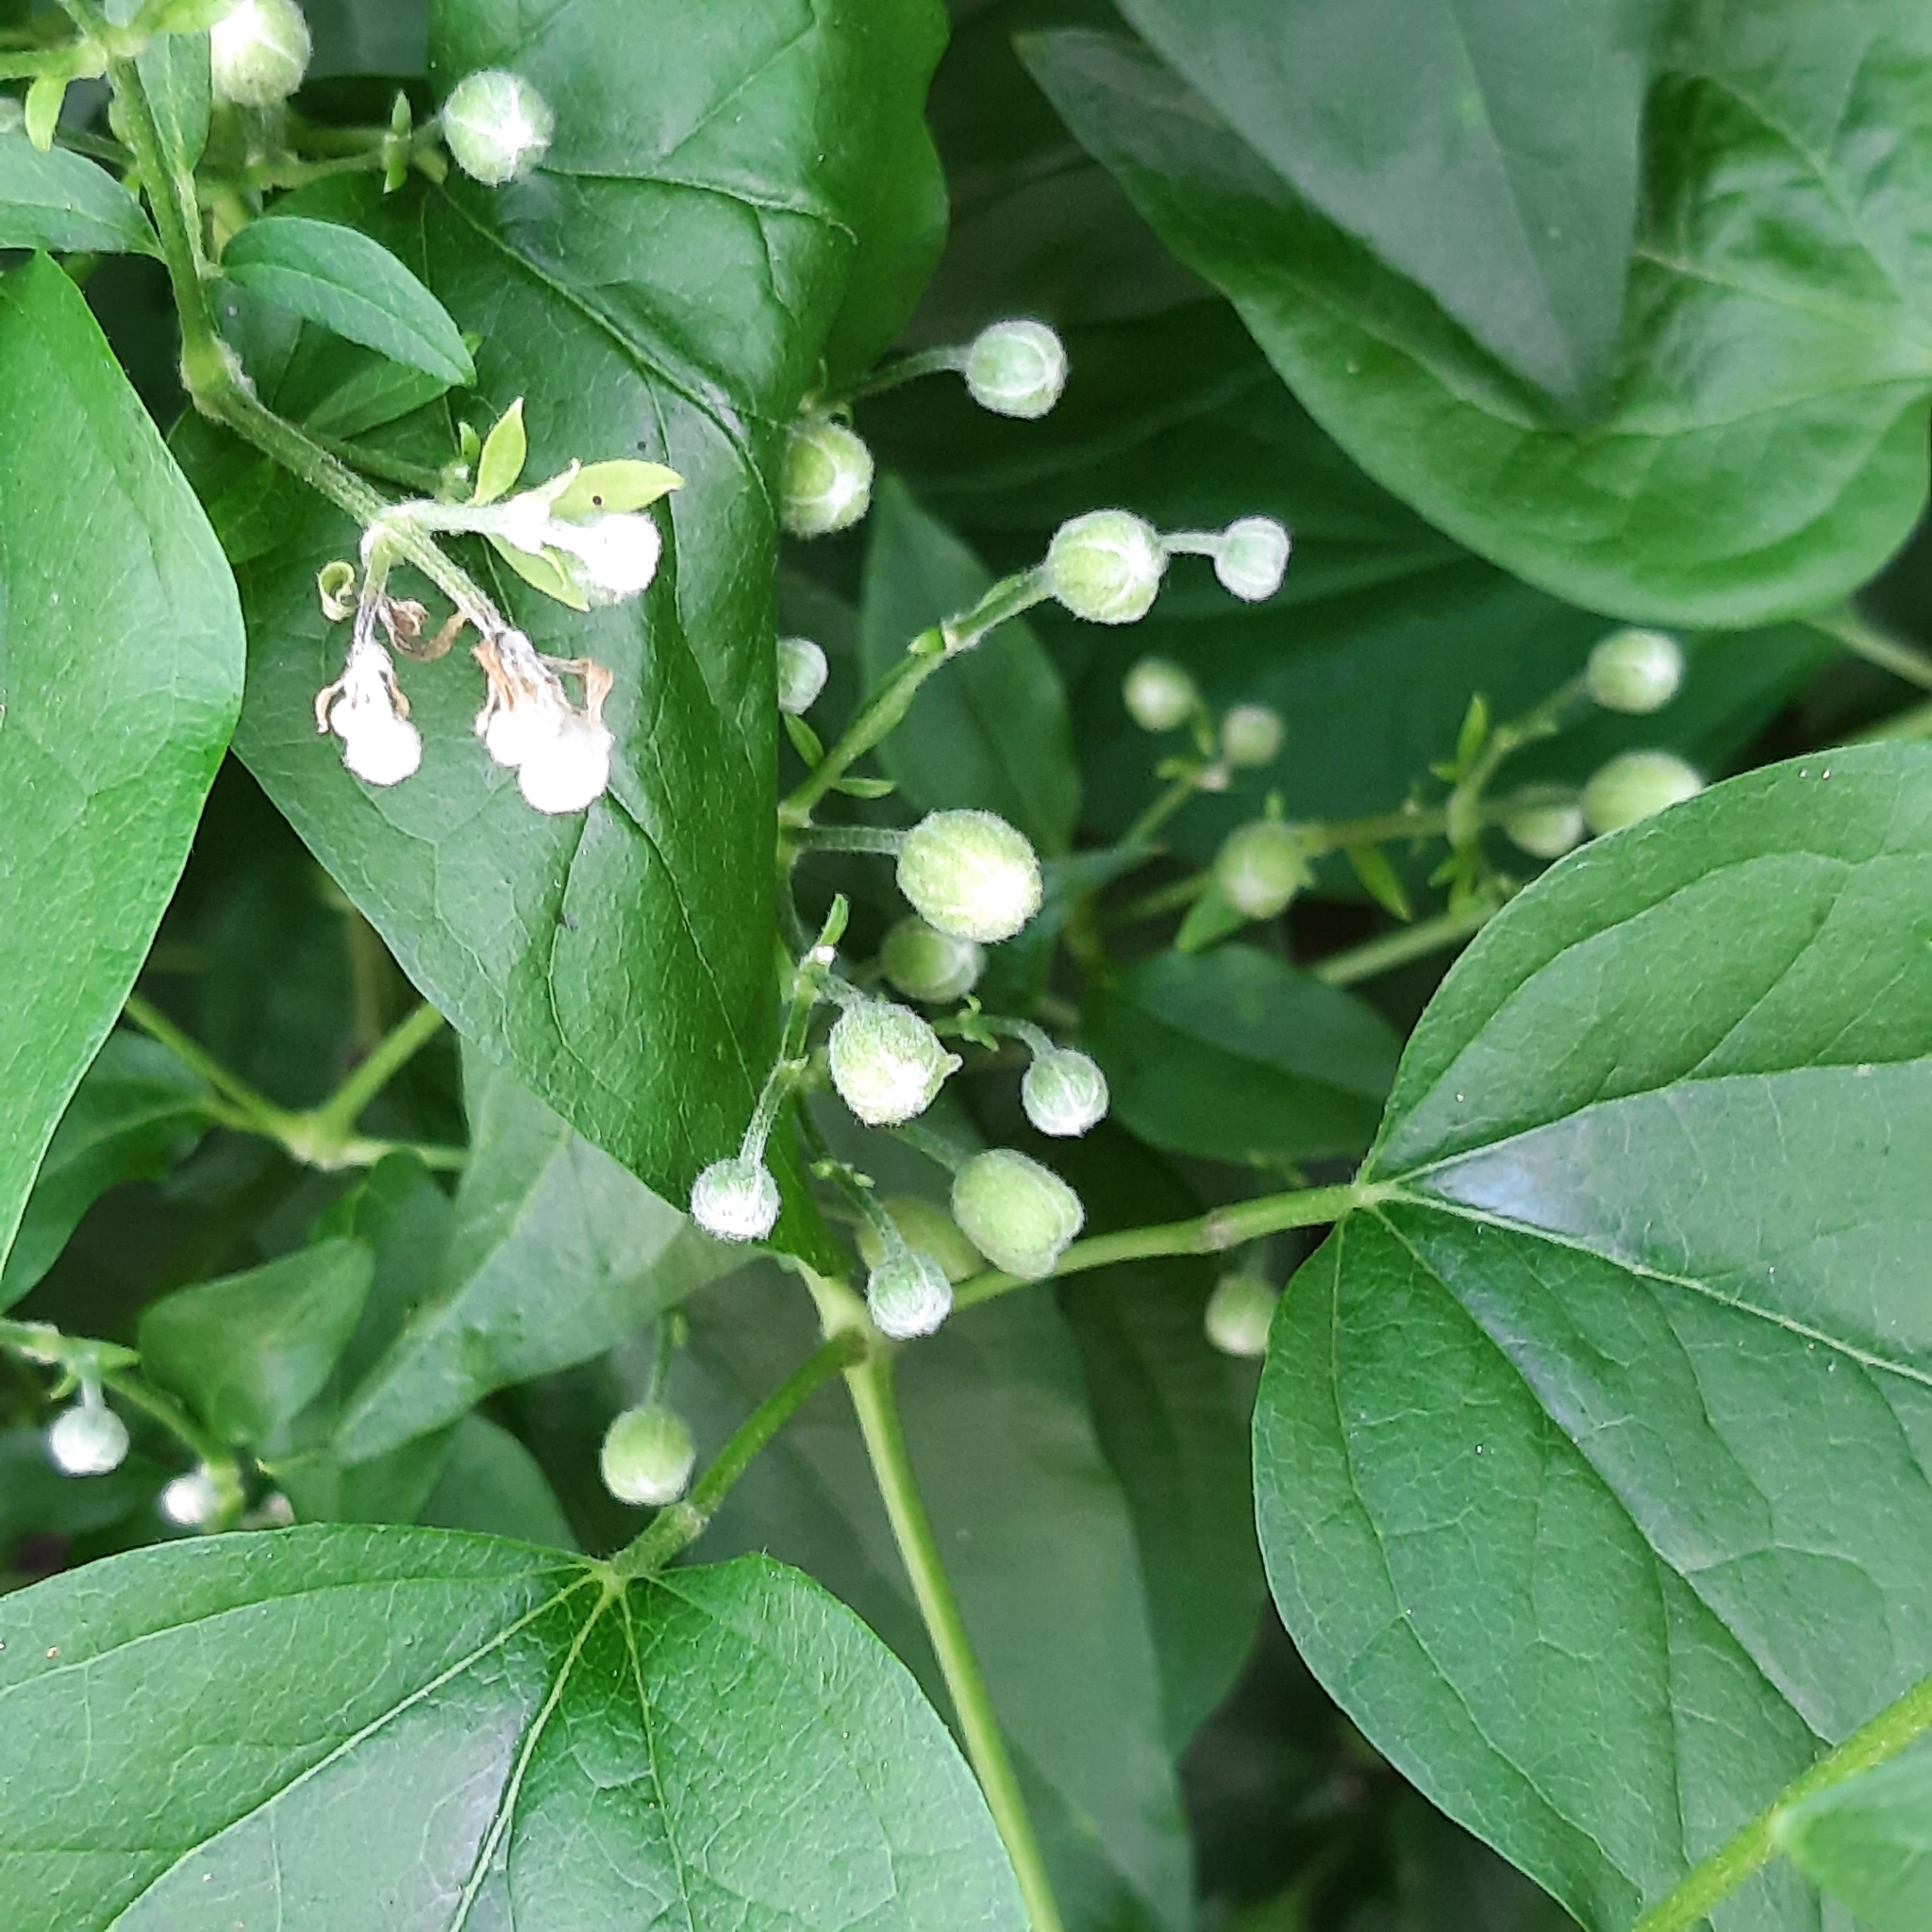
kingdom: Plantae
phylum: Tracheophyta
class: Magnoliopsida
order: Ranunculales
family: Ranunculaceae
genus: Clematis
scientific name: Clematis vitalba
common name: Evergreen clematis
